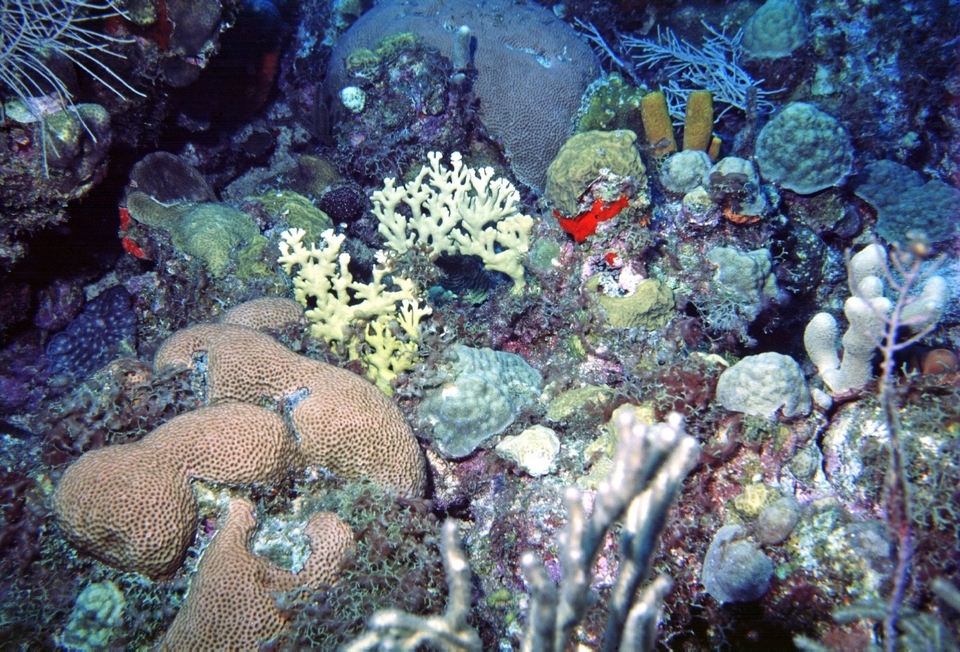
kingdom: Animalia
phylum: Cnidaria
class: Anthozoa
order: Scleractinia
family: Rhizangiidae
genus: Siderastrea
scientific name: Siderastrea siderea
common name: Massive starlet coral
